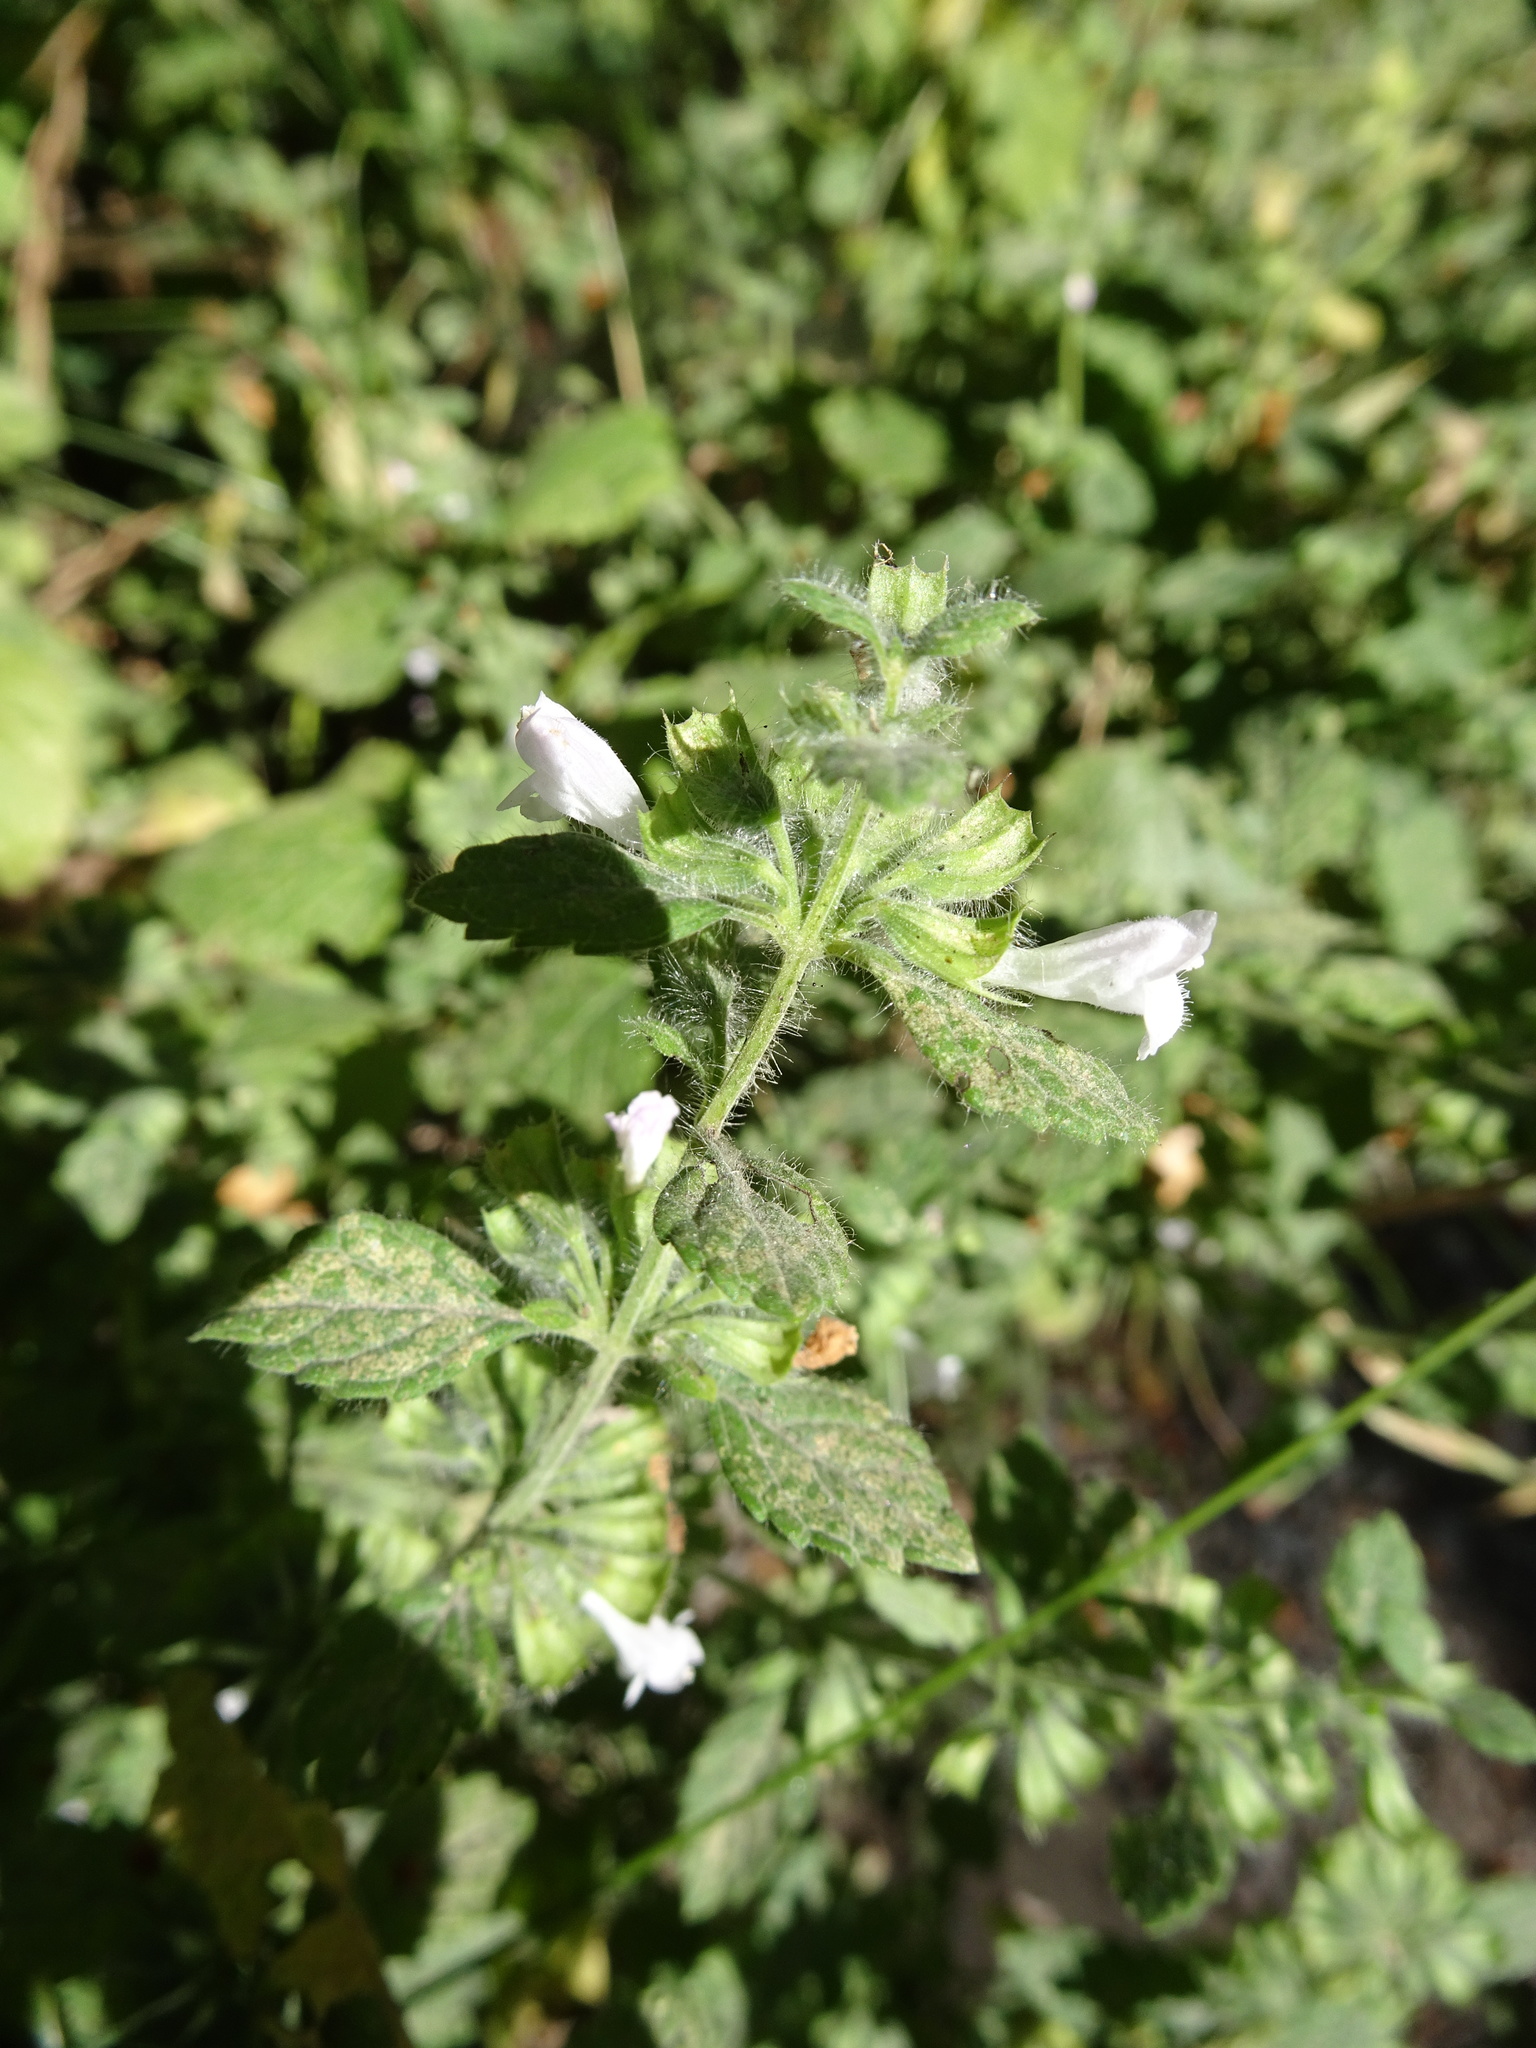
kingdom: Plantae
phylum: Tracheophyta
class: Magnoliopsida
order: Lamiales
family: Lamiaceae
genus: Ballota
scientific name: Ballota nigra
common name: Black horehound
